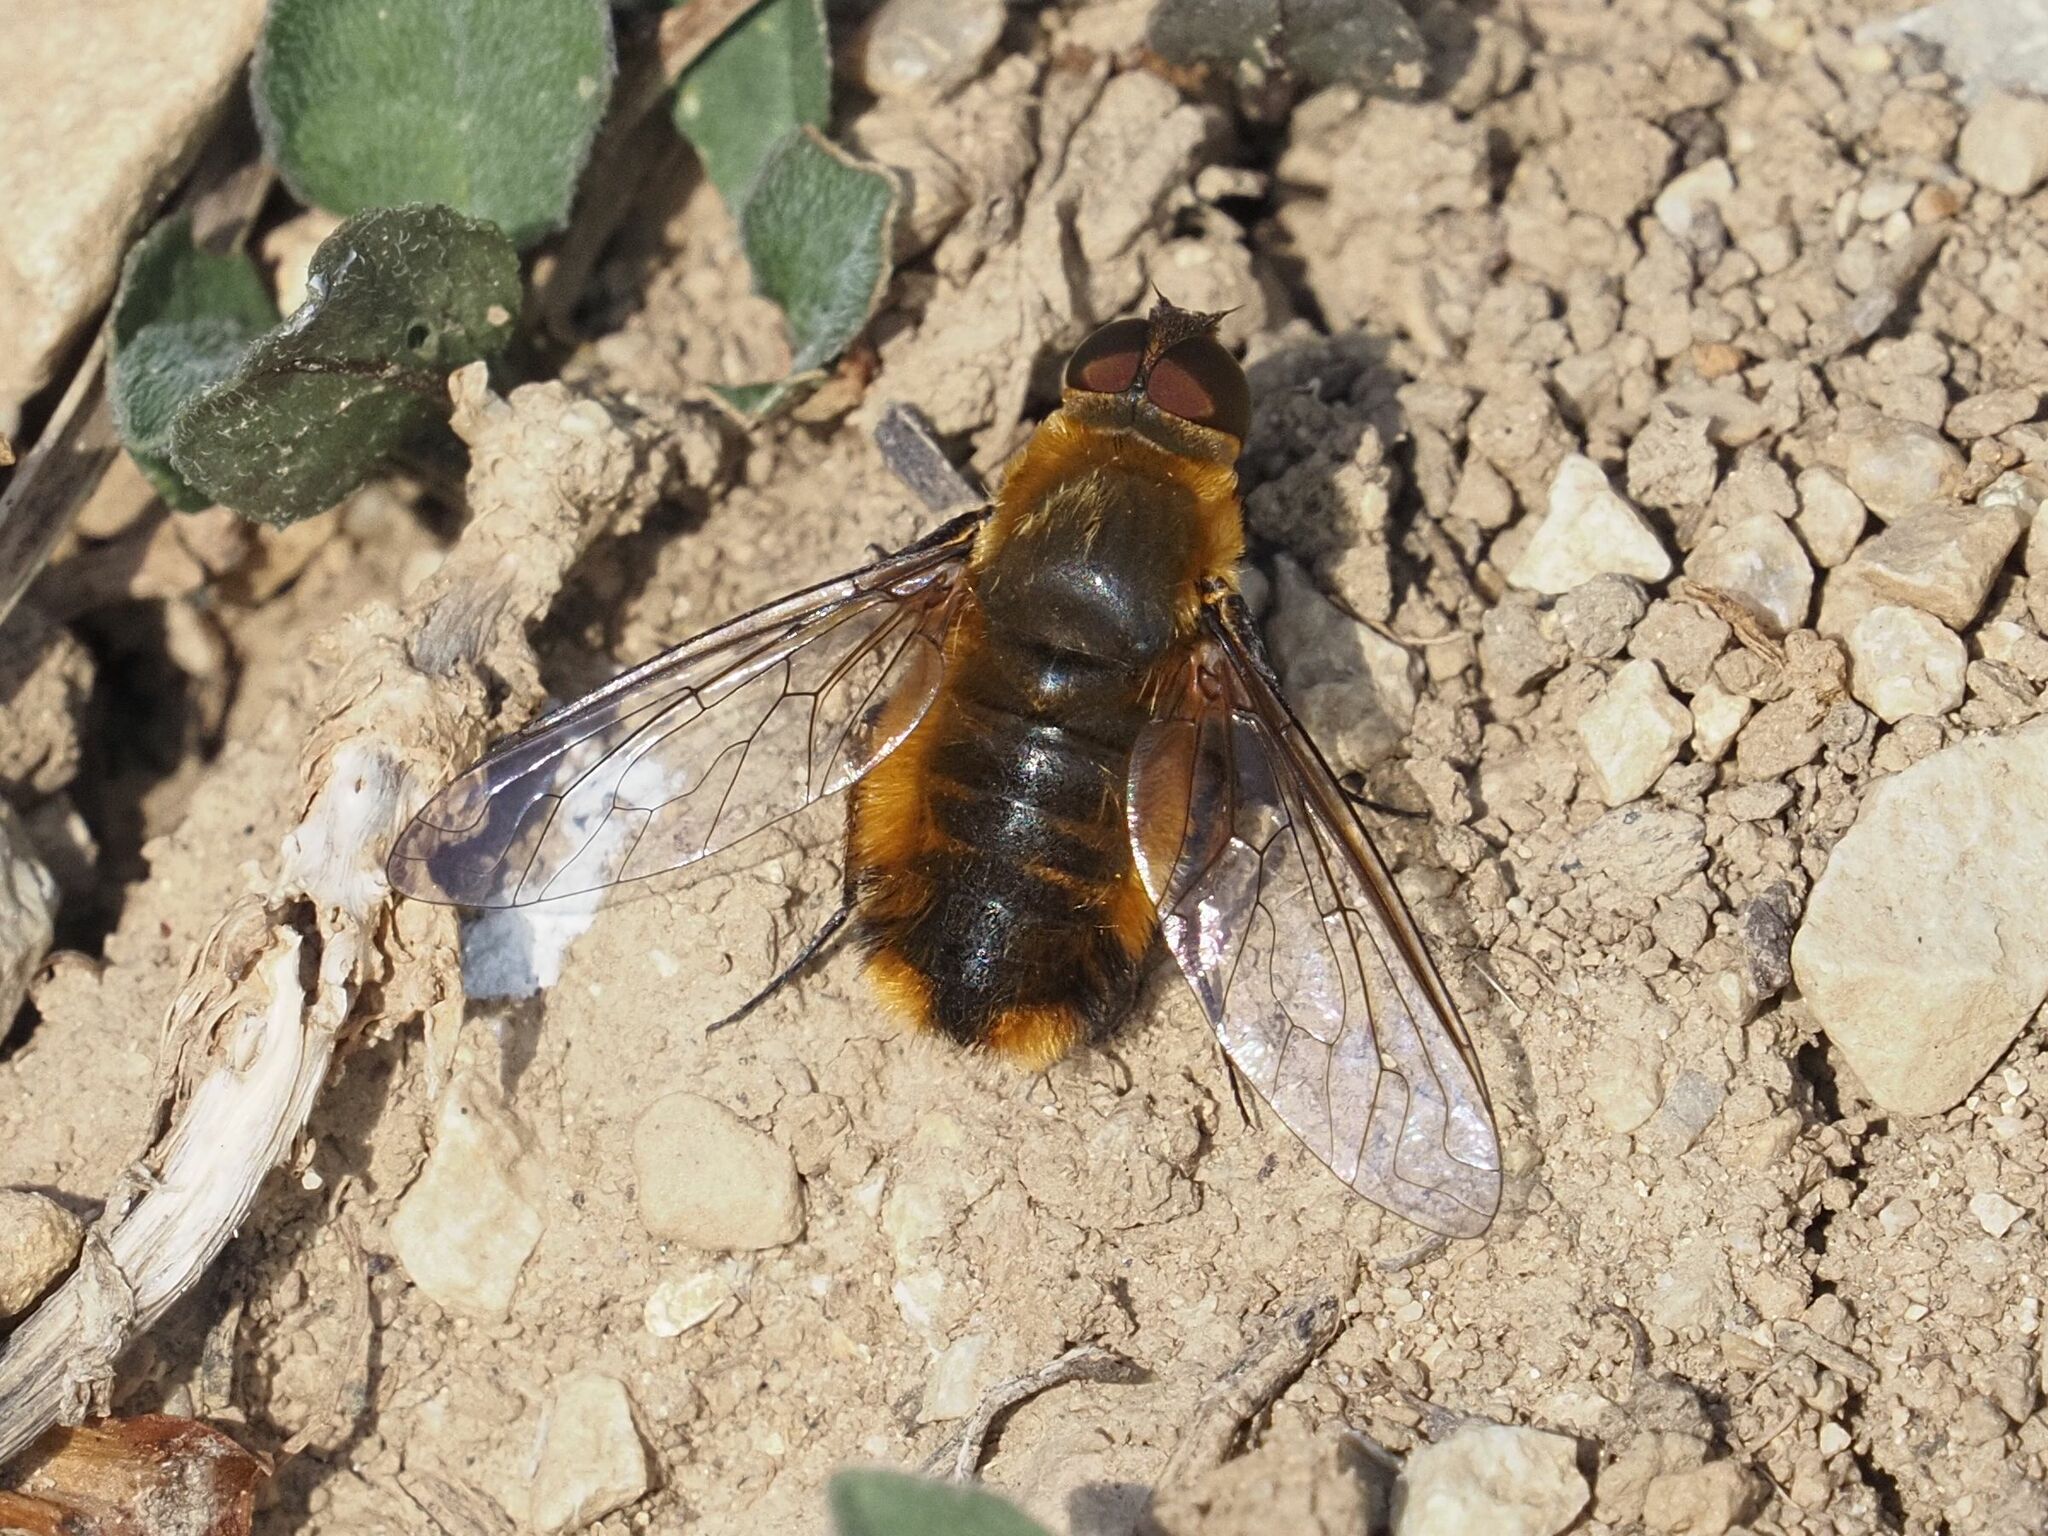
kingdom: Animalia
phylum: Arthropoda
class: Insecta
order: Diptera
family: Bombyliidae
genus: Villa
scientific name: Villa hottentotta
